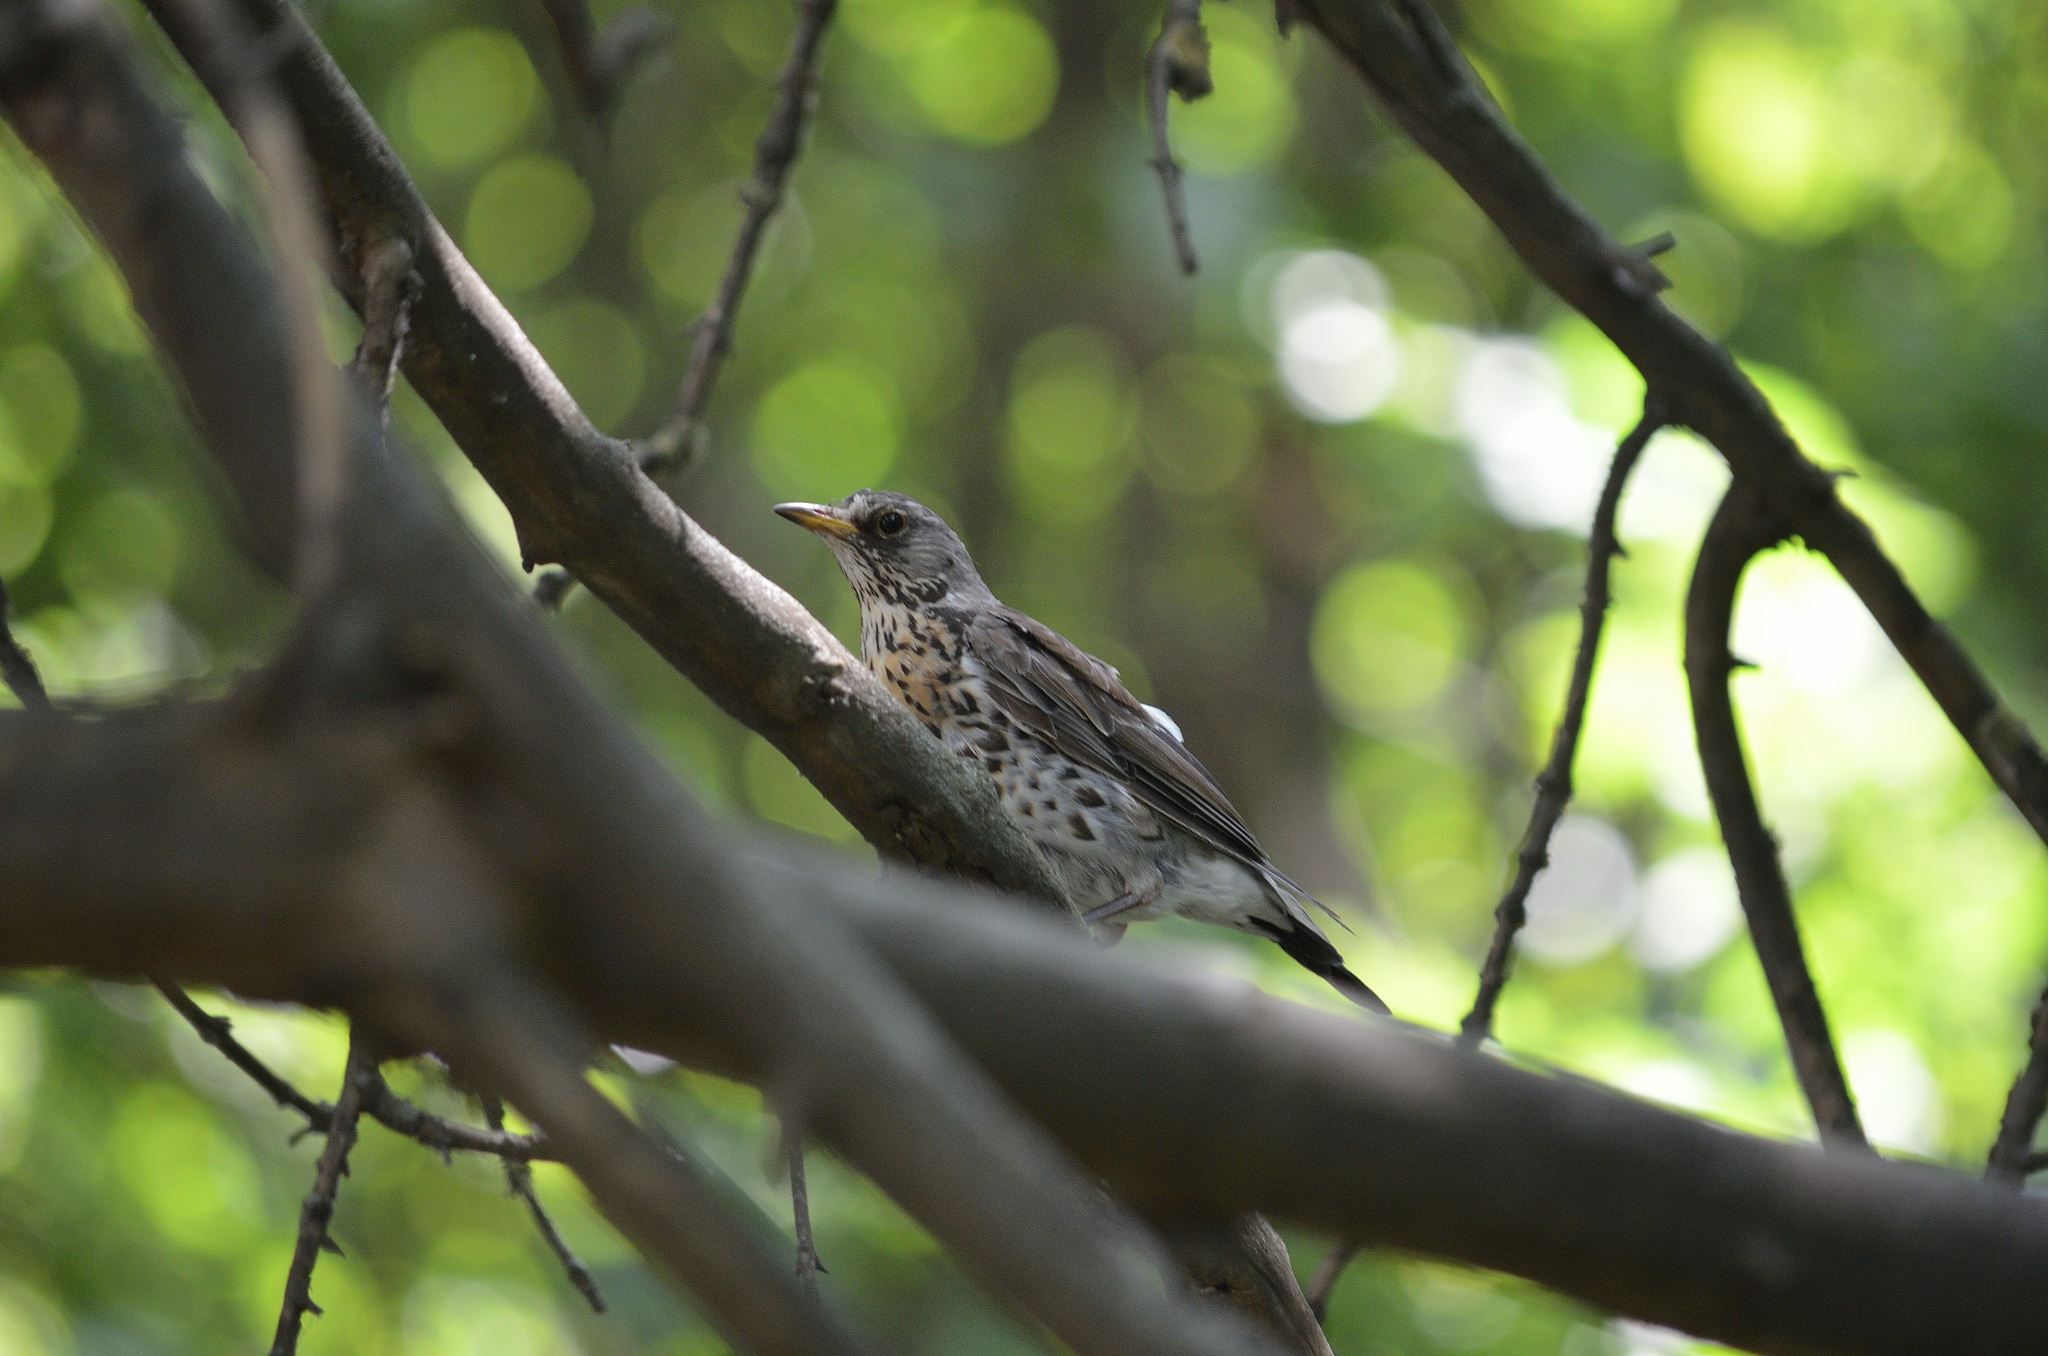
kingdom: Animalia
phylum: Chordata
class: Aves
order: Passeriformes
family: Turdidae
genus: Turdus
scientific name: Turdus pilaris
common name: Fieldfare
